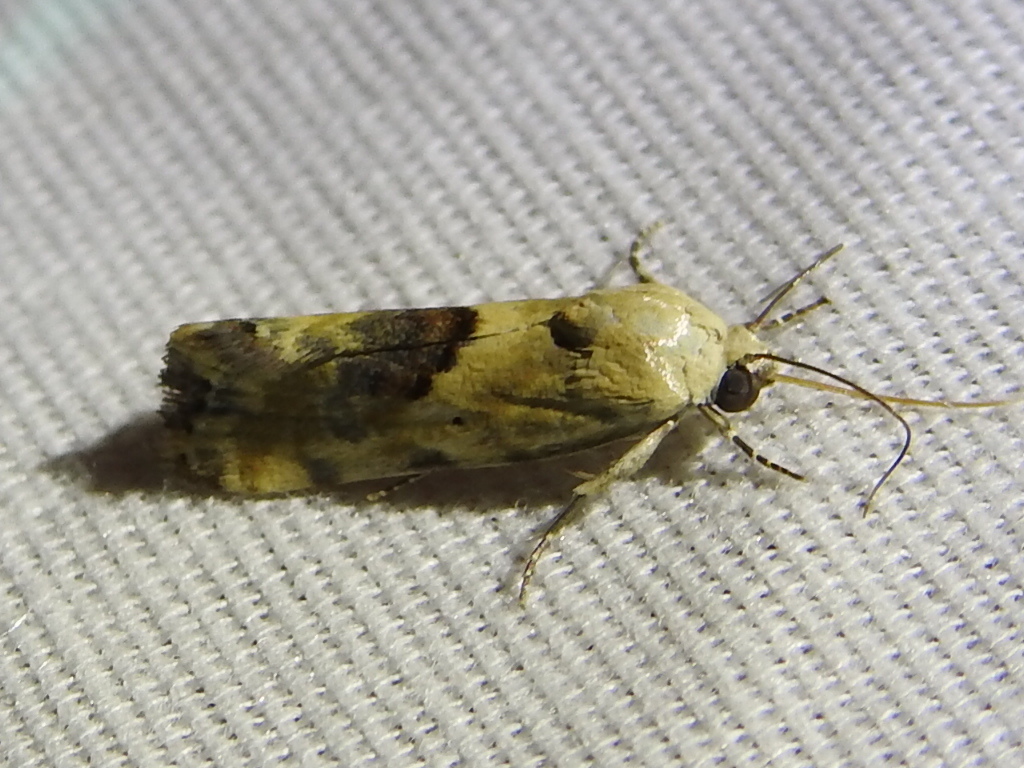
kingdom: Animalia
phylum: Arthropoda
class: Insecta
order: Lepidoptera
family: Noctuidae
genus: Acontia
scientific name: Acontia libedis
